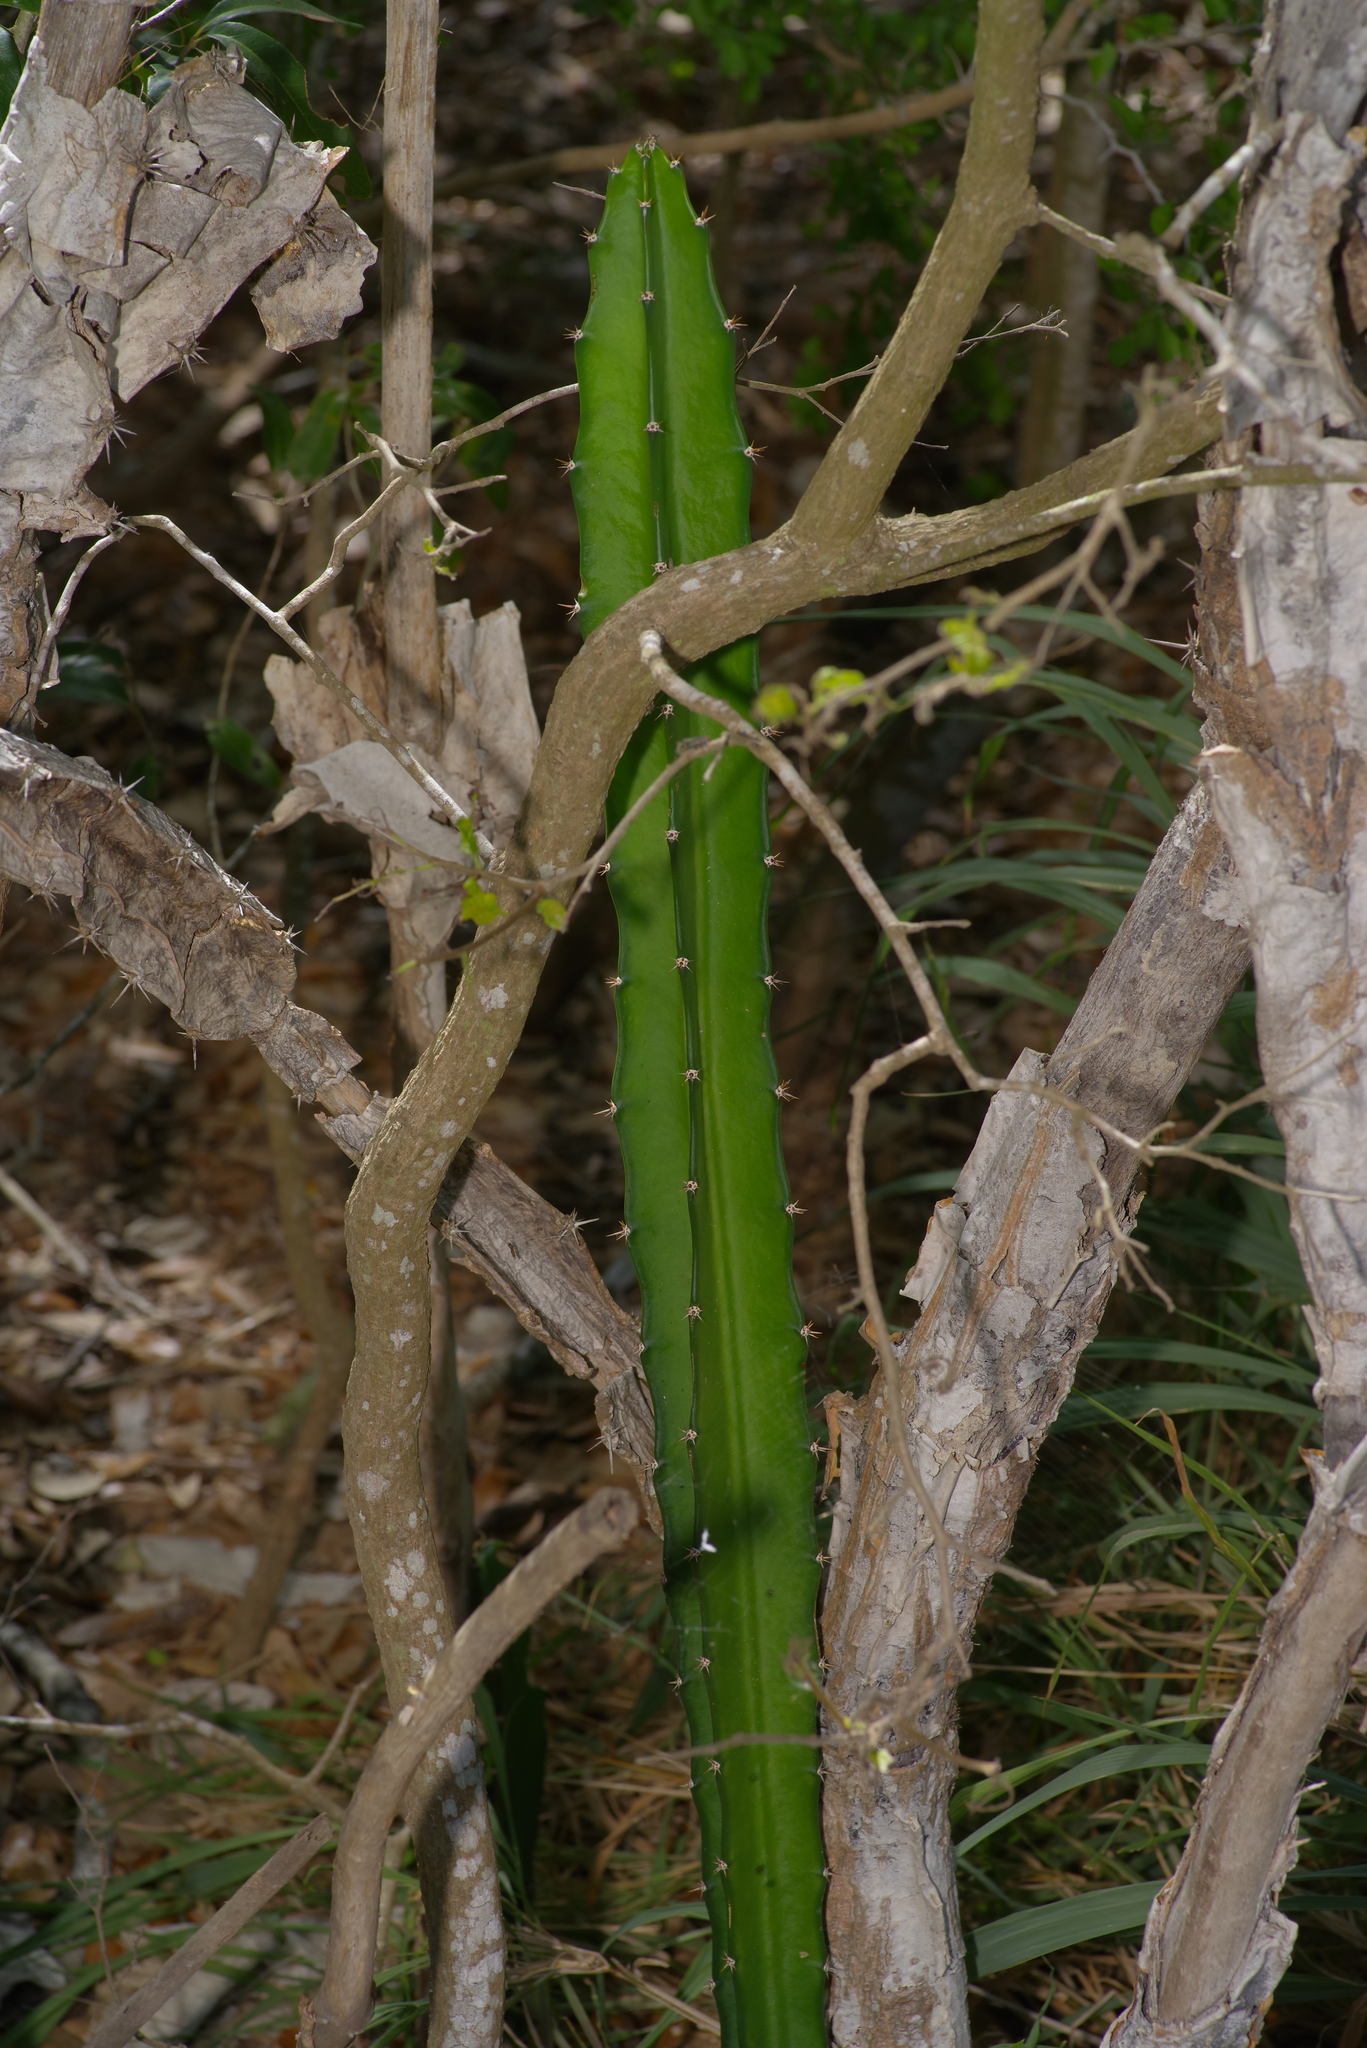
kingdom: Plantae
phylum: Tracheophyta
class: Magnoliopsida
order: Caryophyllales
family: Cactaceae
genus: Acanthocereus
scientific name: Acanthocereus tetragonus
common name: Triangle cactus
